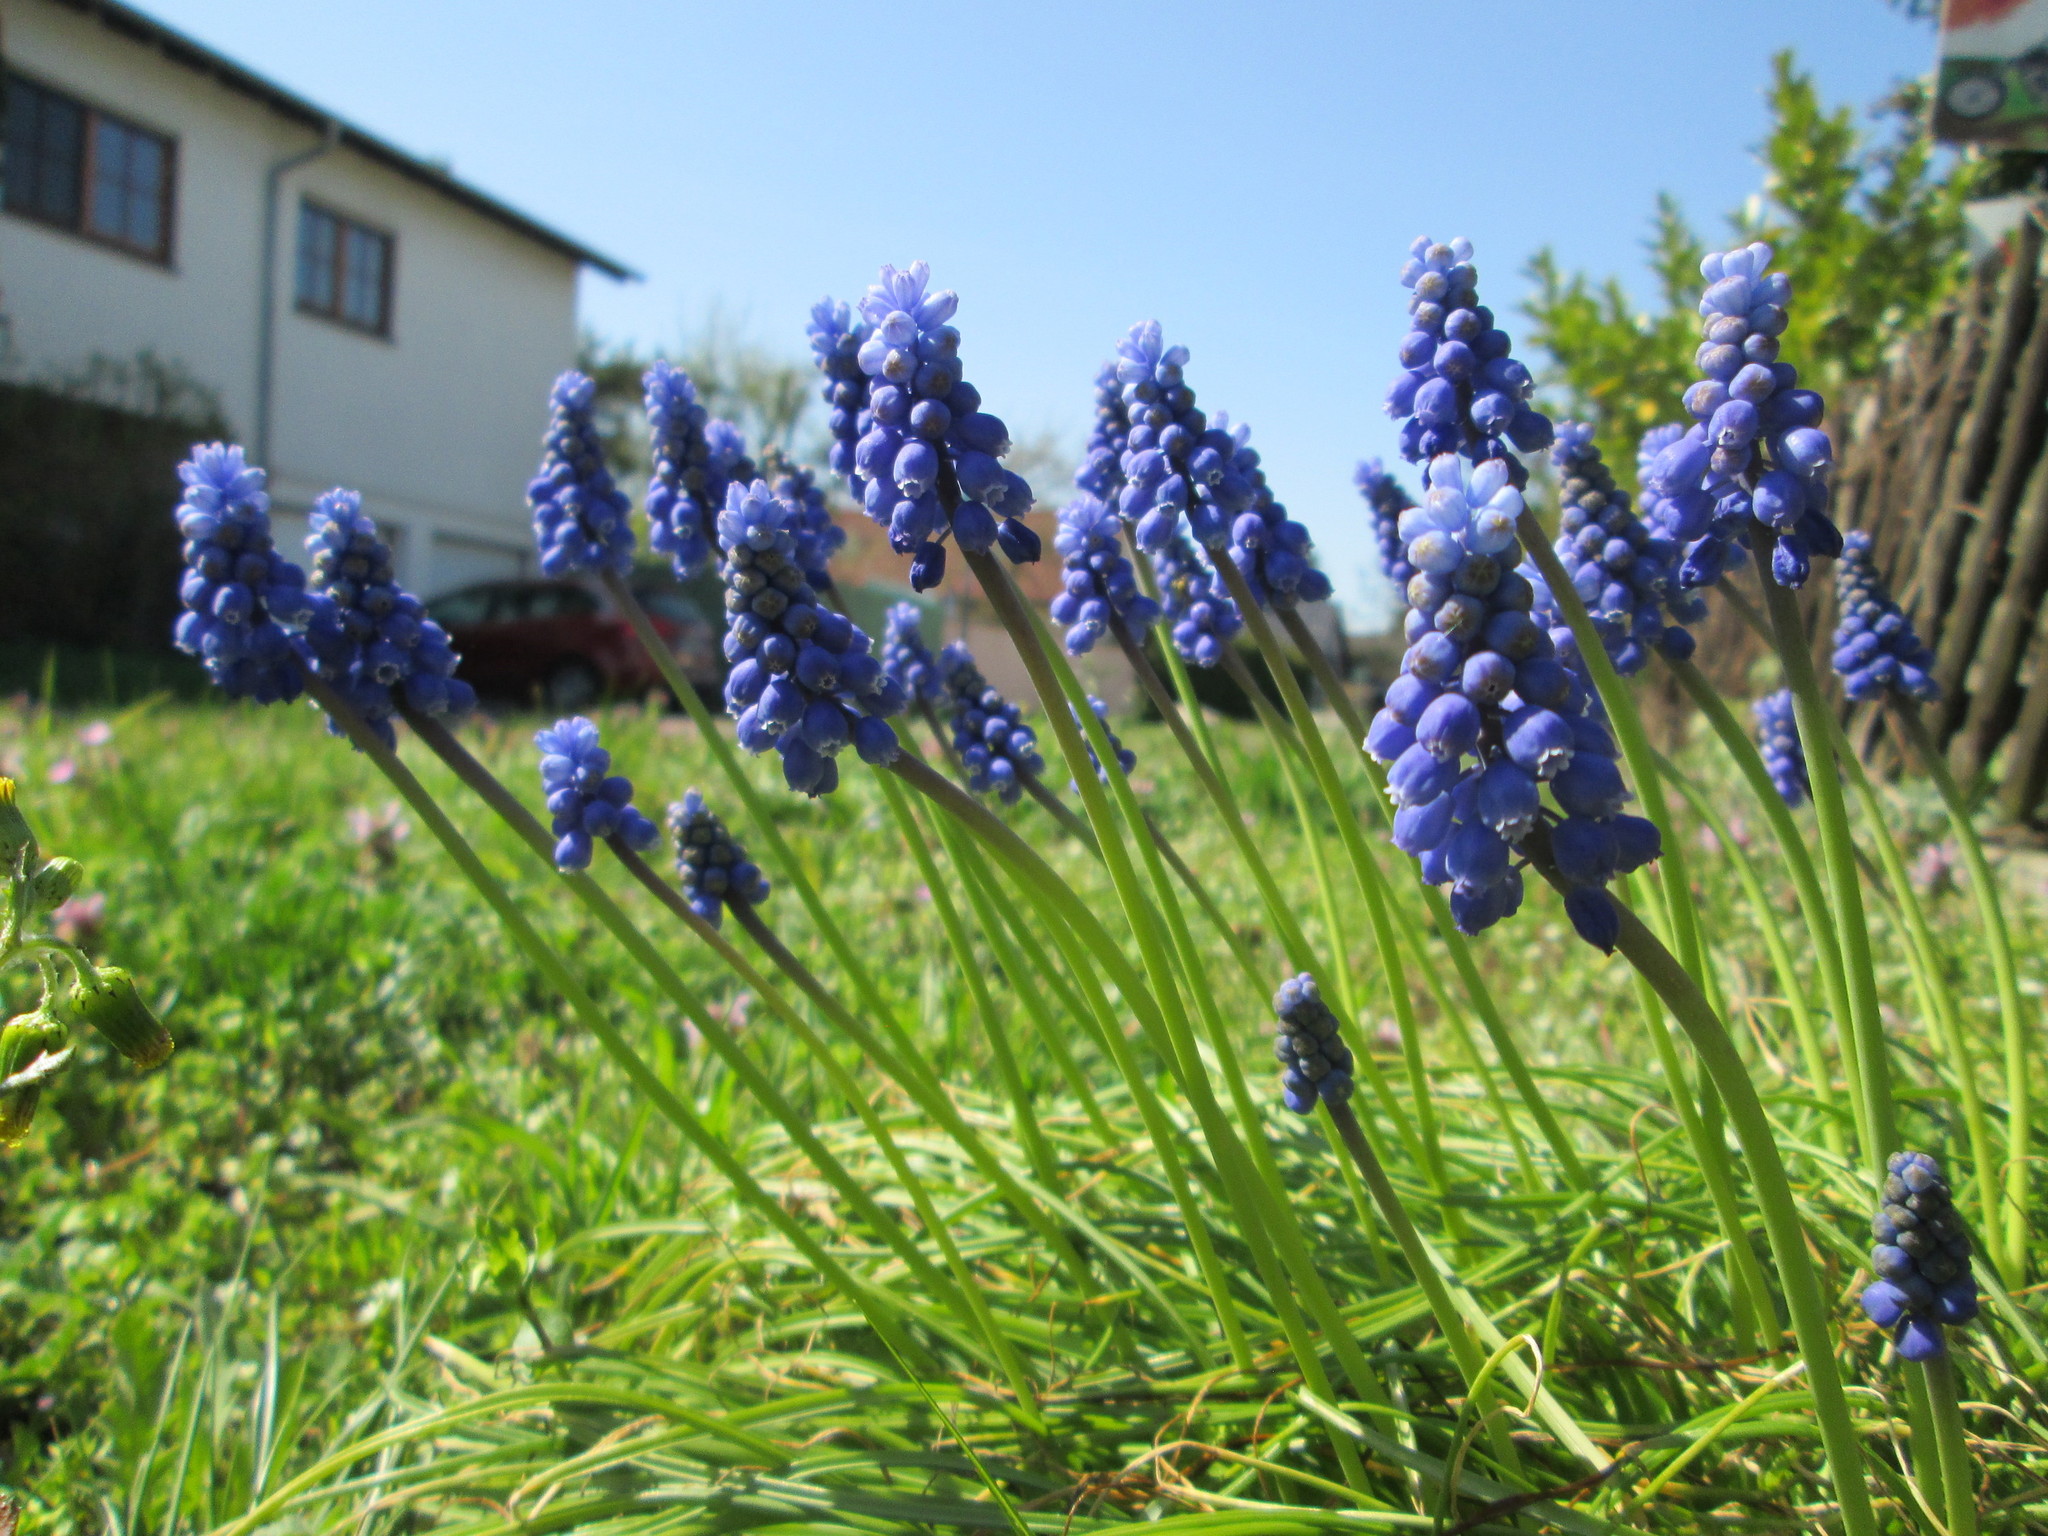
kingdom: Plantae
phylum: Tracheophyta
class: Liliopsida
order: Asparagales
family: Asparagaceae
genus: Muscari
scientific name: Muscari armeniacum
